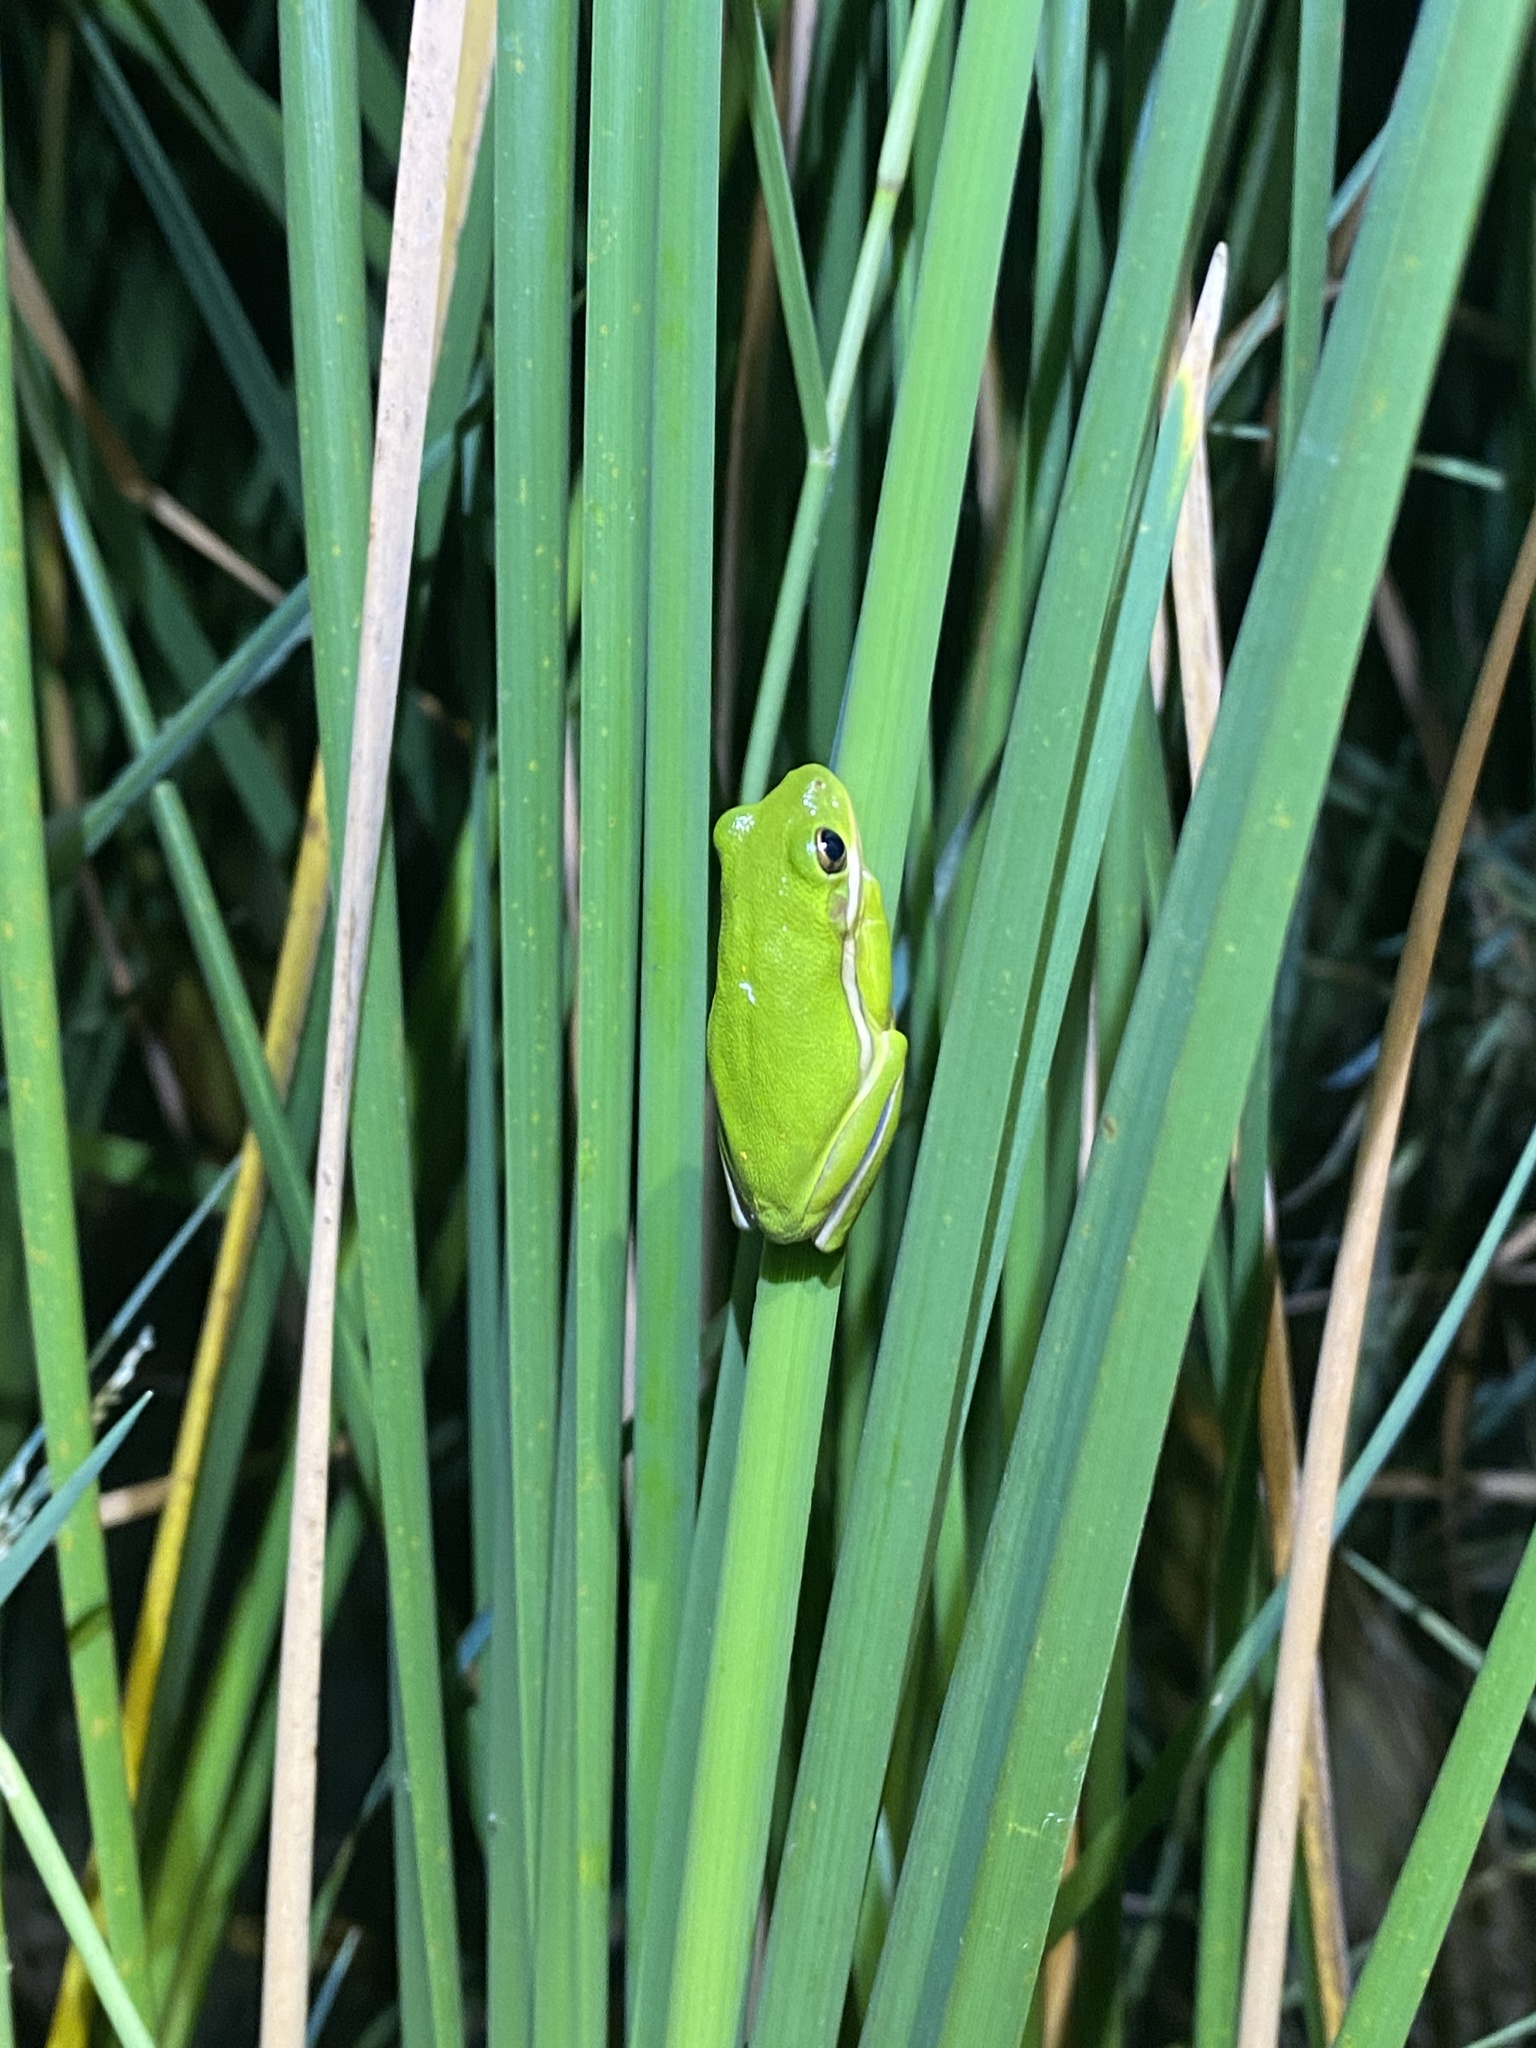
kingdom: Animalia
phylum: Chordata
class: Amphibia
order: Anura
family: Hylidae
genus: Dryophytes
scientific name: Dryophytes cinereus
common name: Green treefrog
